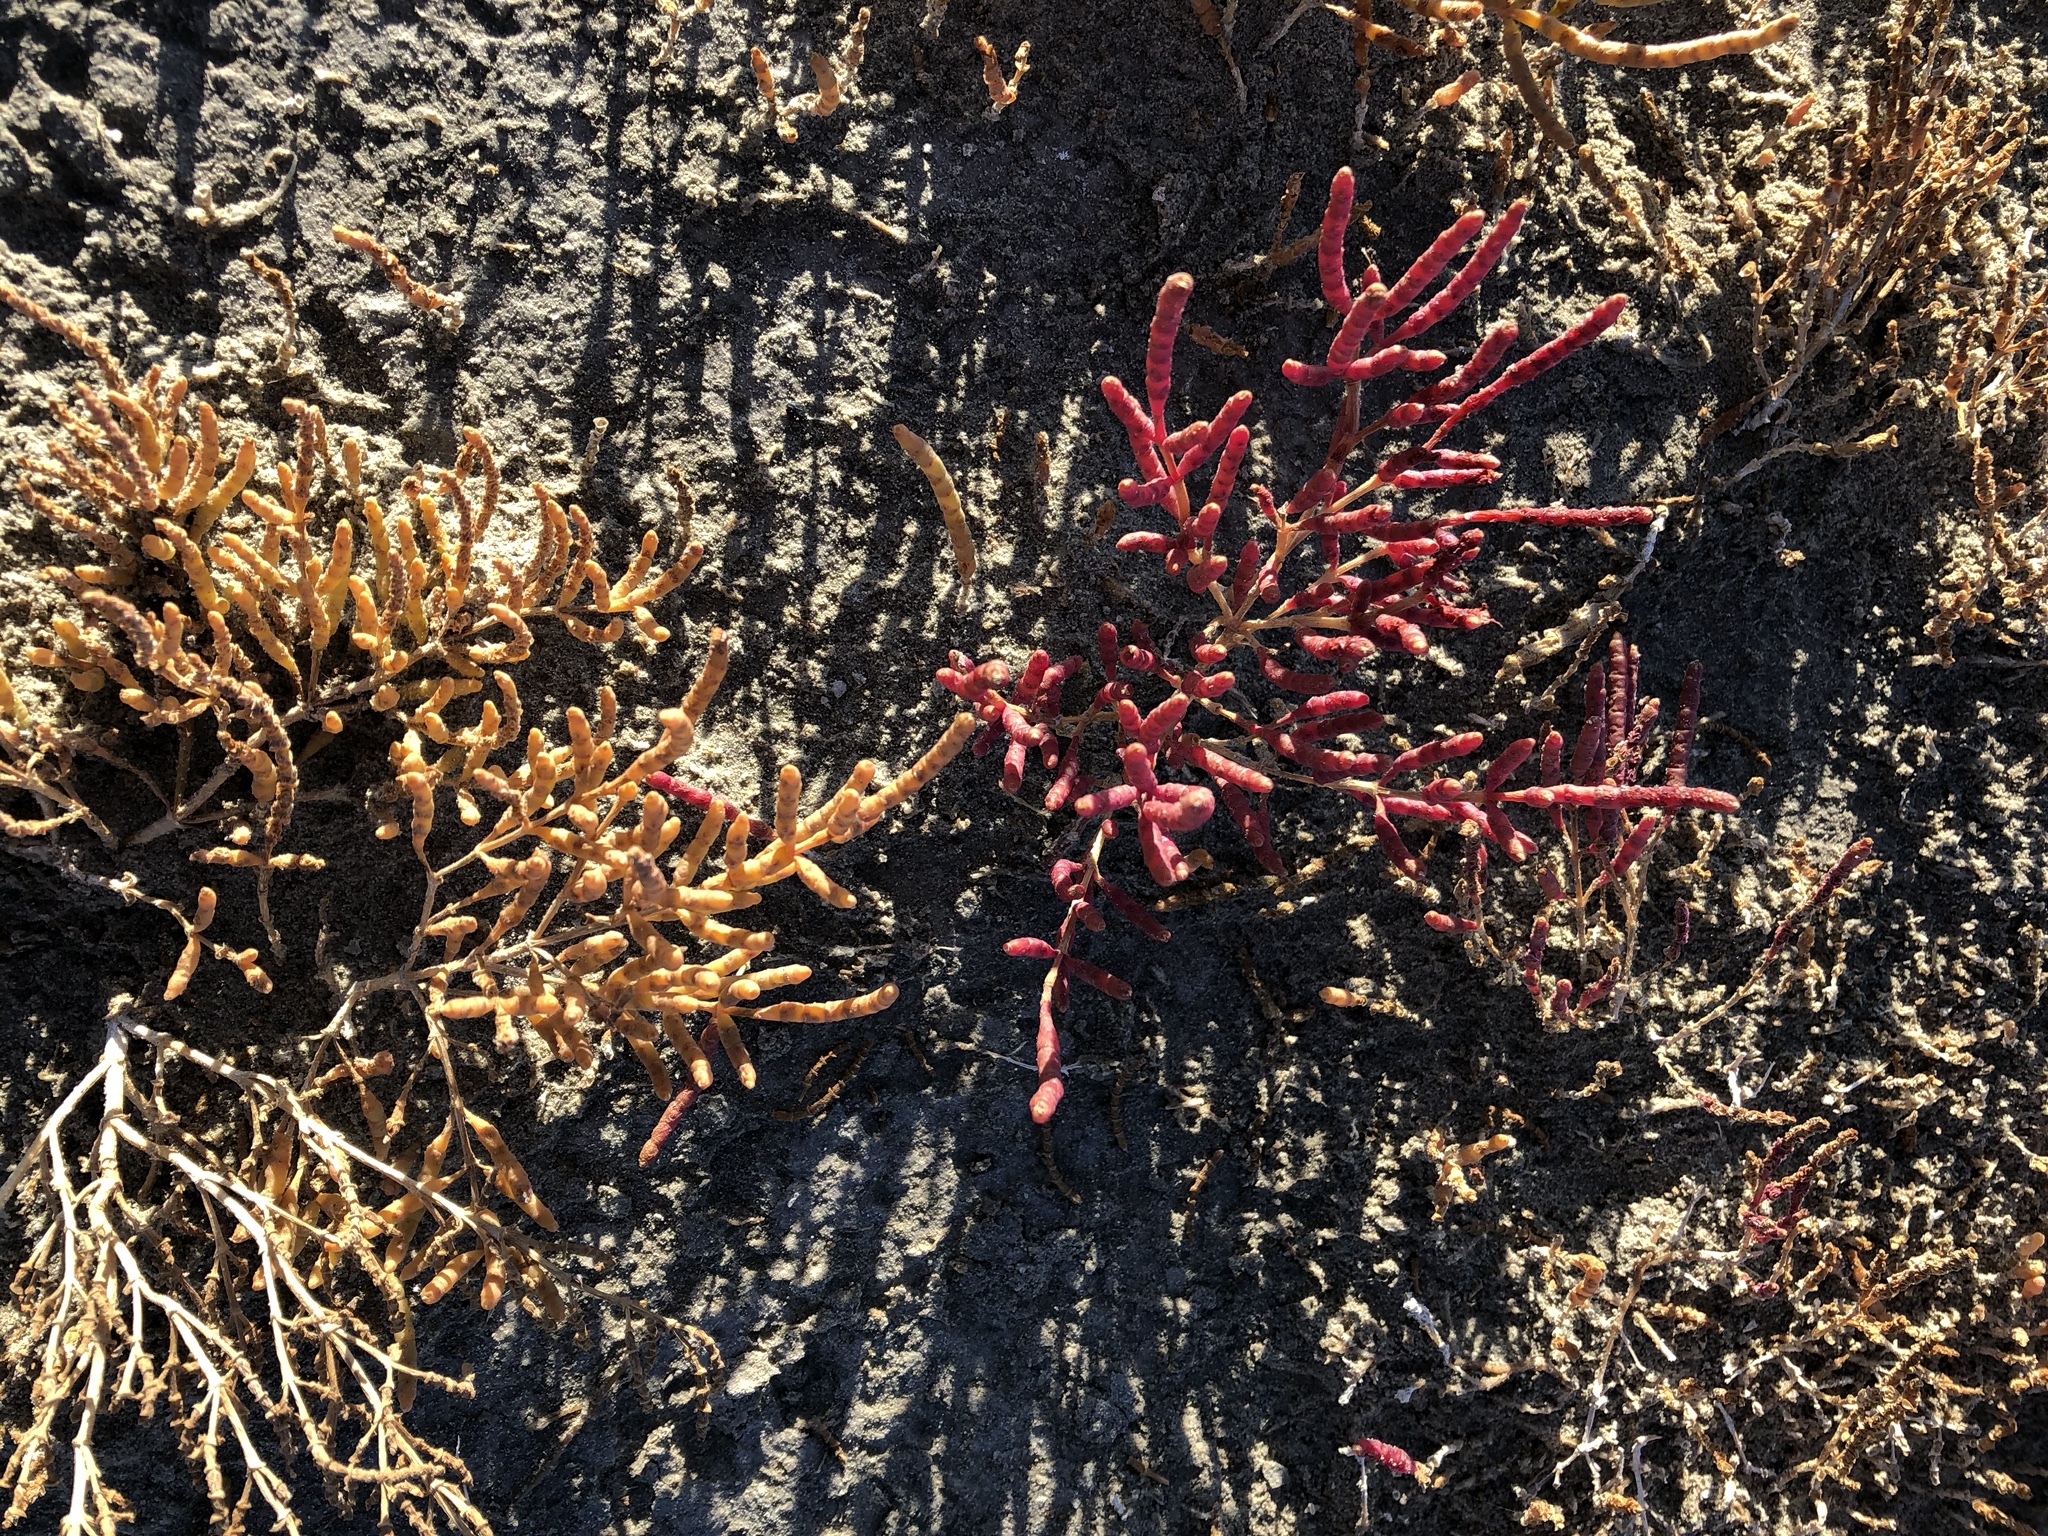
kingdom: Plantae
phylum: Tracheophyta
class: Magnoliopsida
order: Caryophyllales
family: Amaranthaceae
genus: Salicornia
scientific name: Salicornia rubra
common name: Red glasswort
